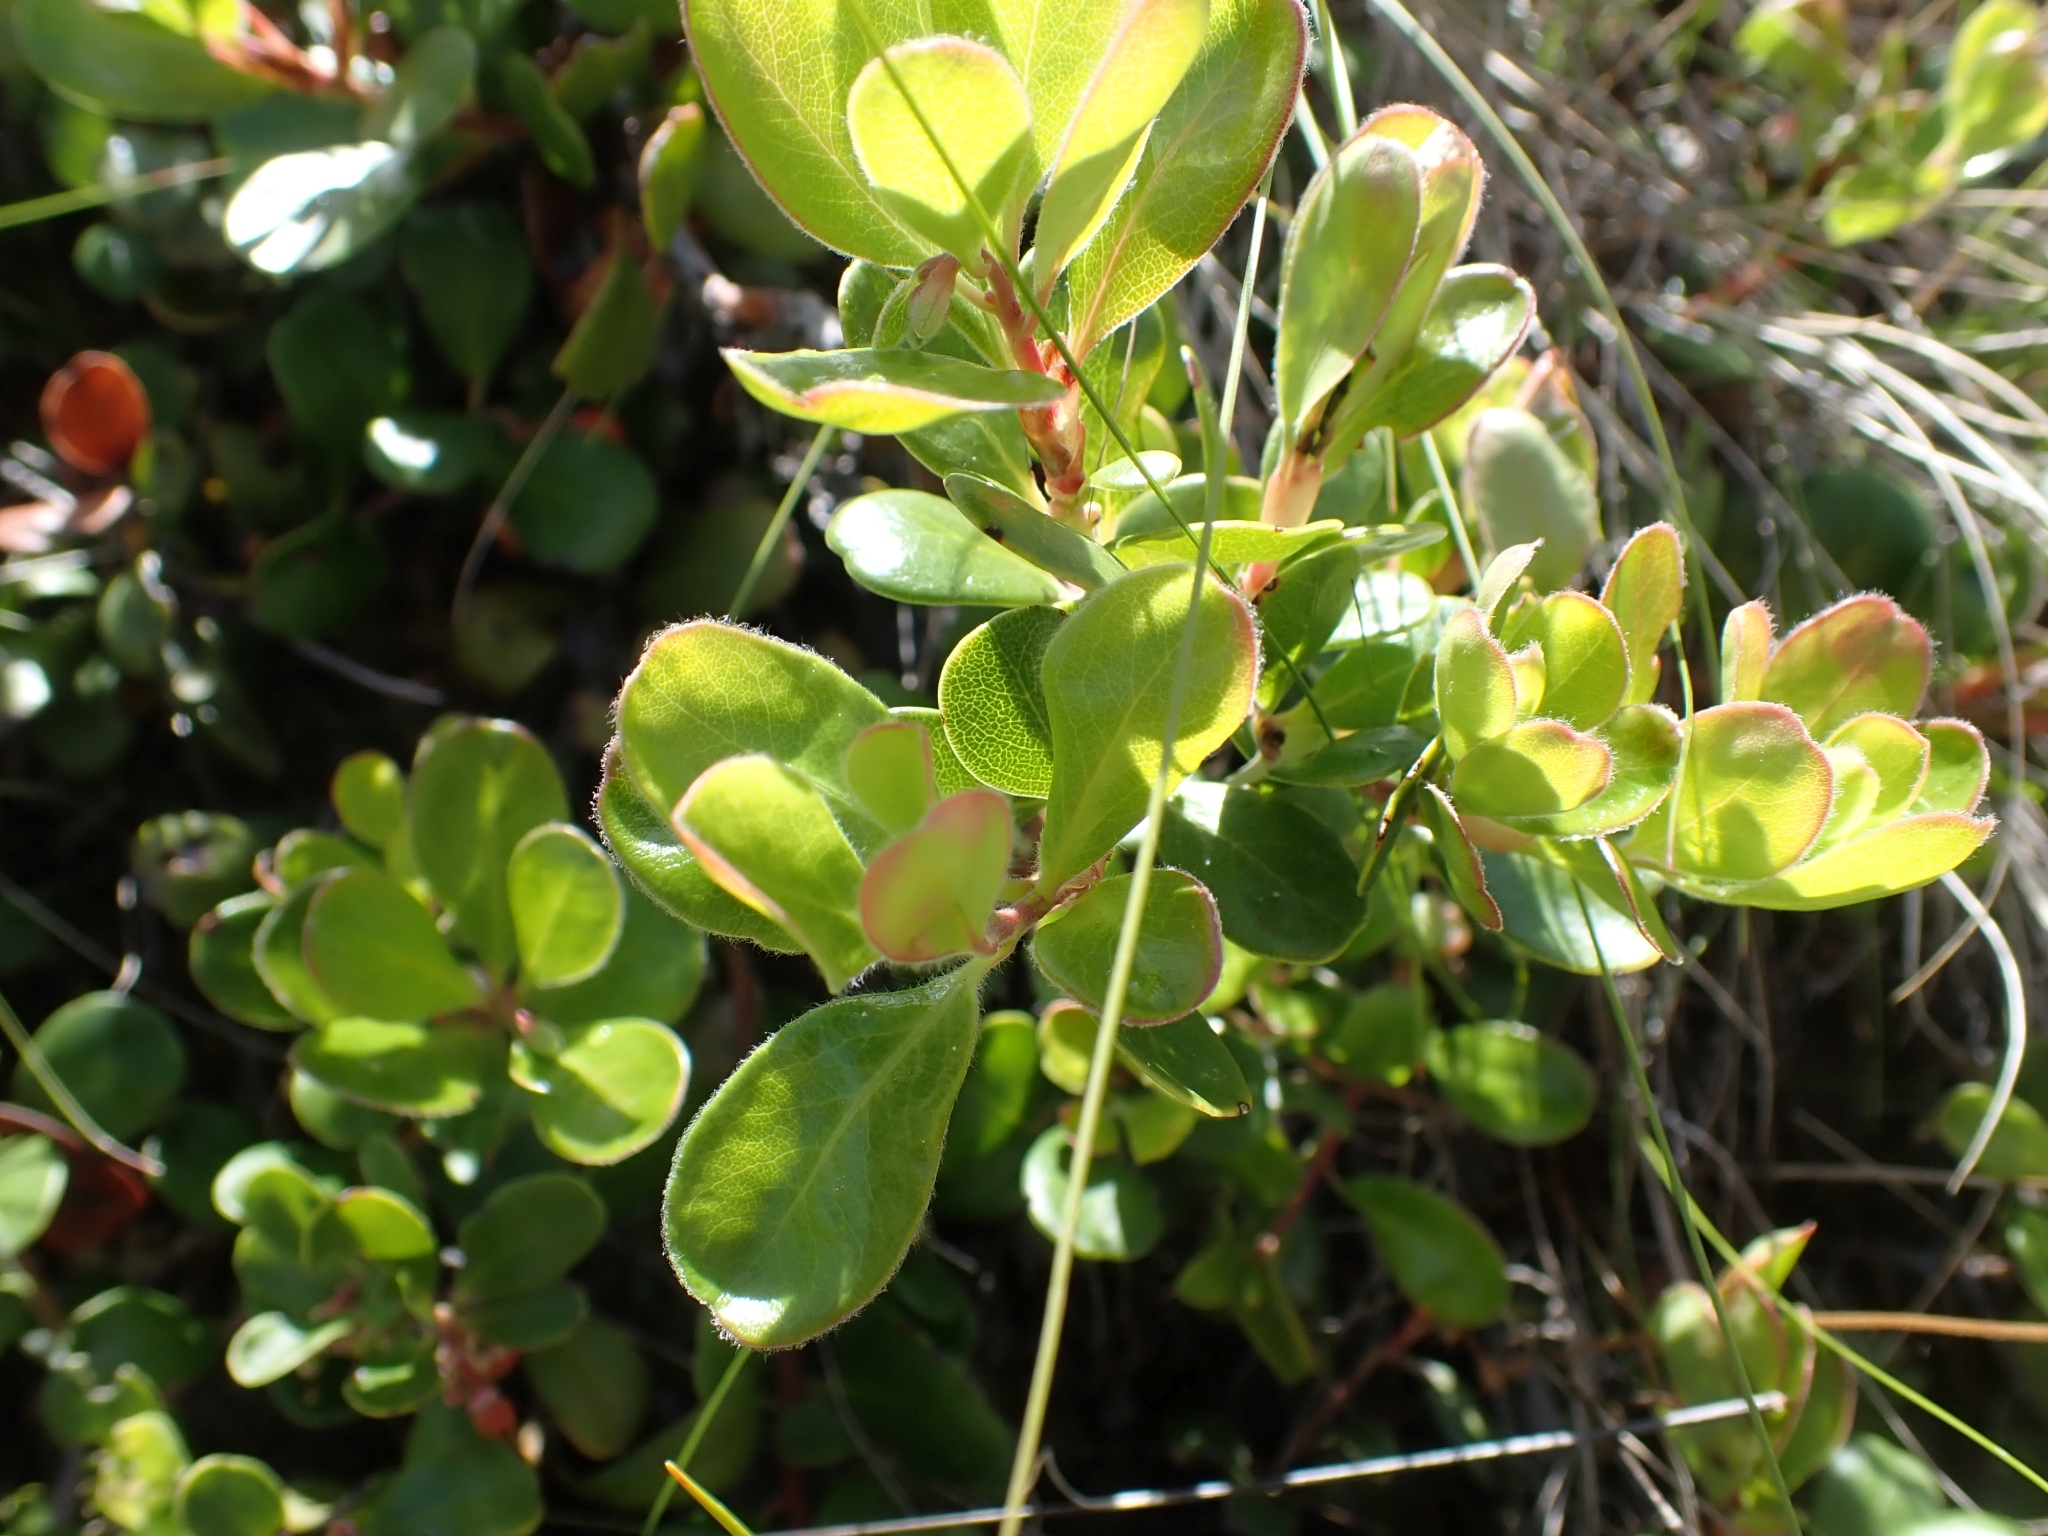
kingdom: Plantae
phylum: Tracheophyta
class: Magnoliopsida
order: Ericales
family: Ericaceae
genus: Arctostaphylos
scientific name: Arctostaphylos uva-ursi
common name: Bearberry
